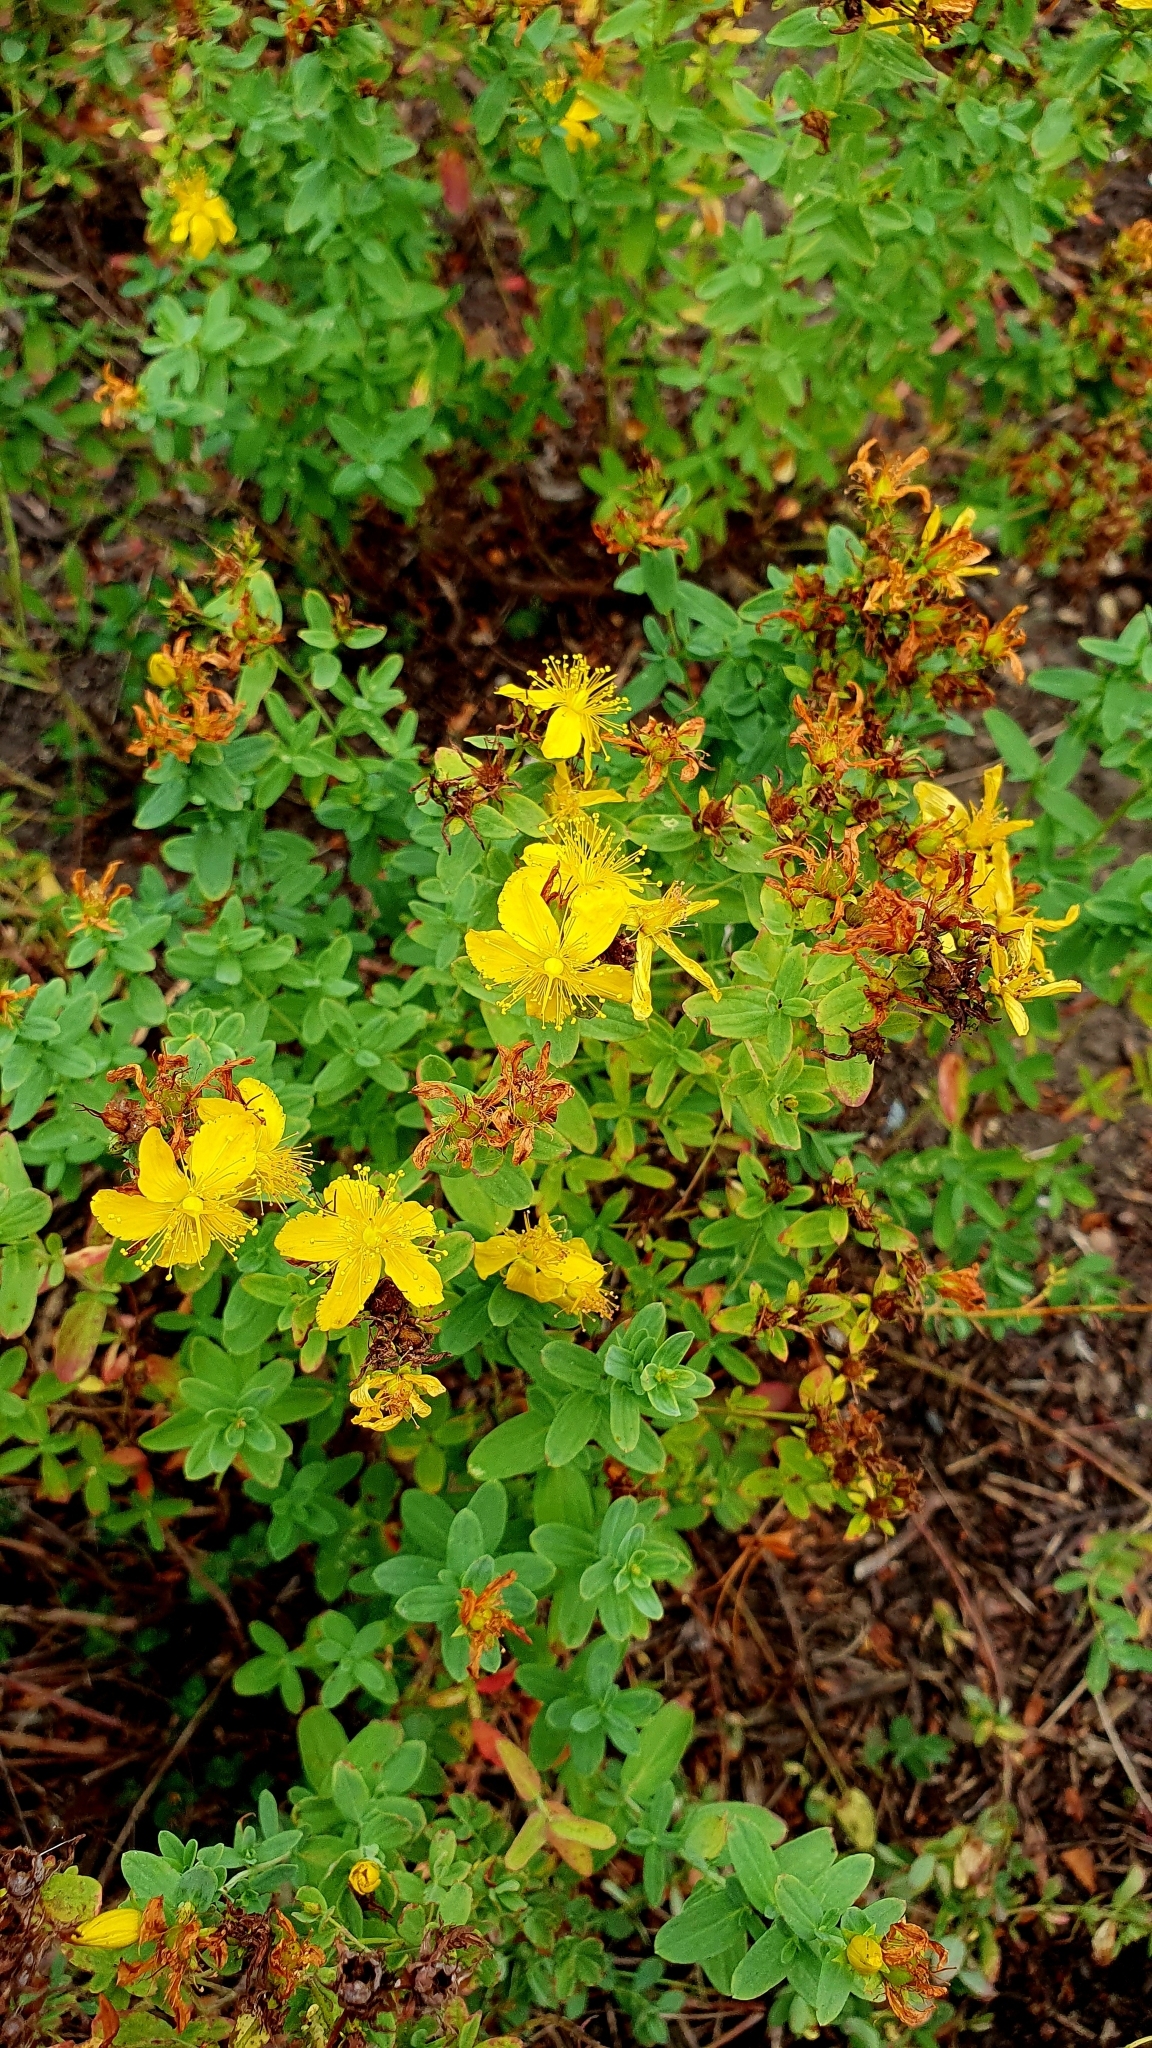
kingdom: Plantae
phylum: Tracheophyta
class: Magnoliopsida
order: Malpighiales
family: Hypericaceae
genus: Hypericum
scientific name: Hypericum perforatum
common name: Common st. johnswort
